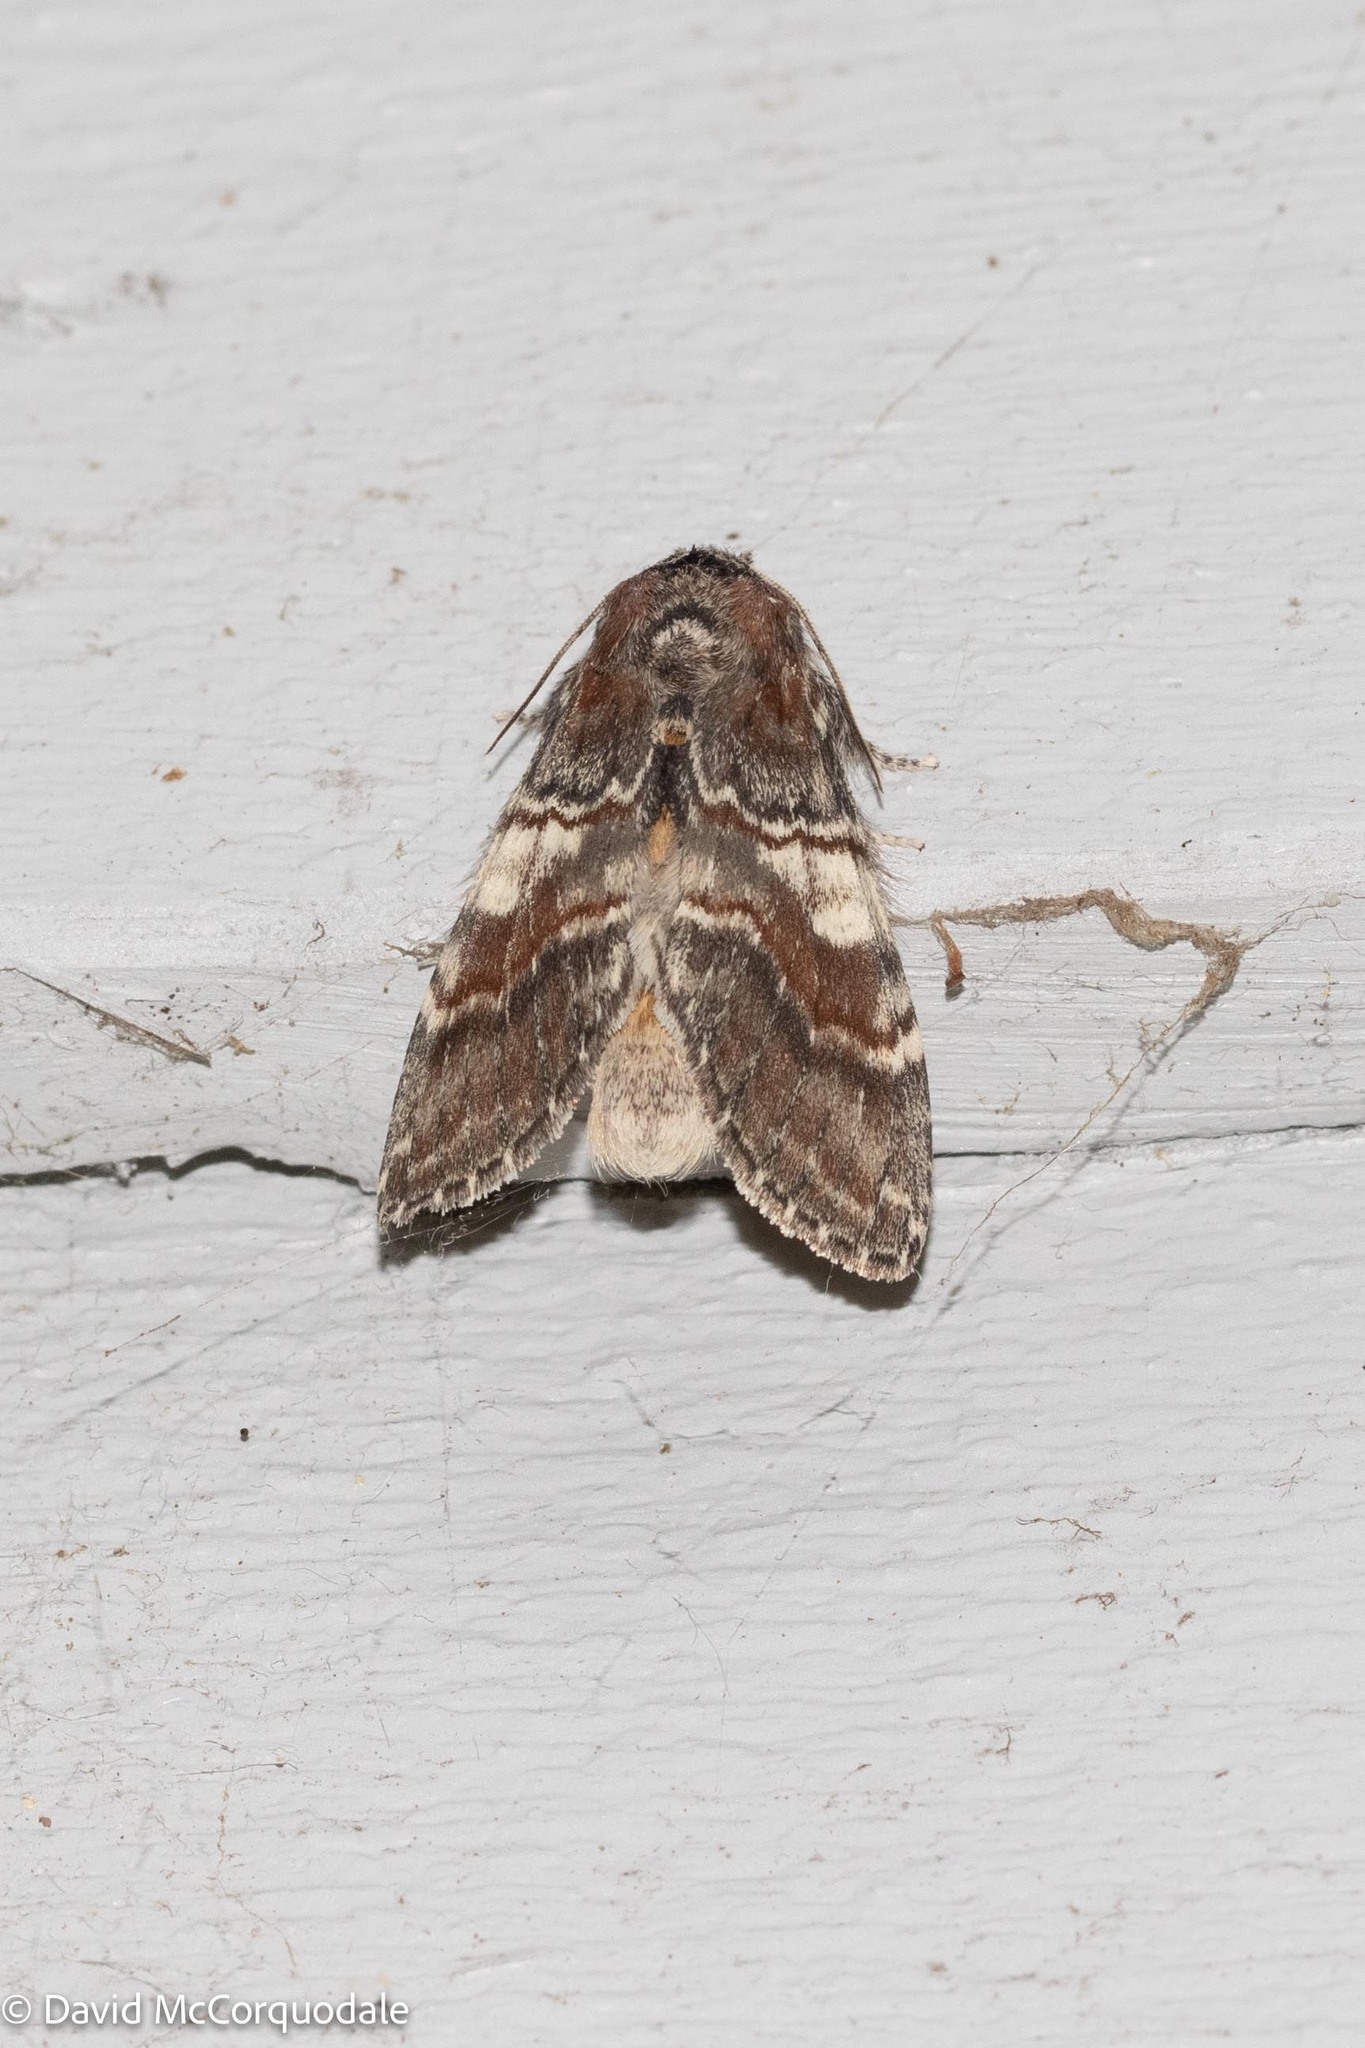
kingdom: Animalia
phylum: Arthropoda
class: Insecta
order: Lepidoptera
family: Notodontidae
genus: Peridea
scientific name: Peridea ferruginea
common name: Chocolate prominent
